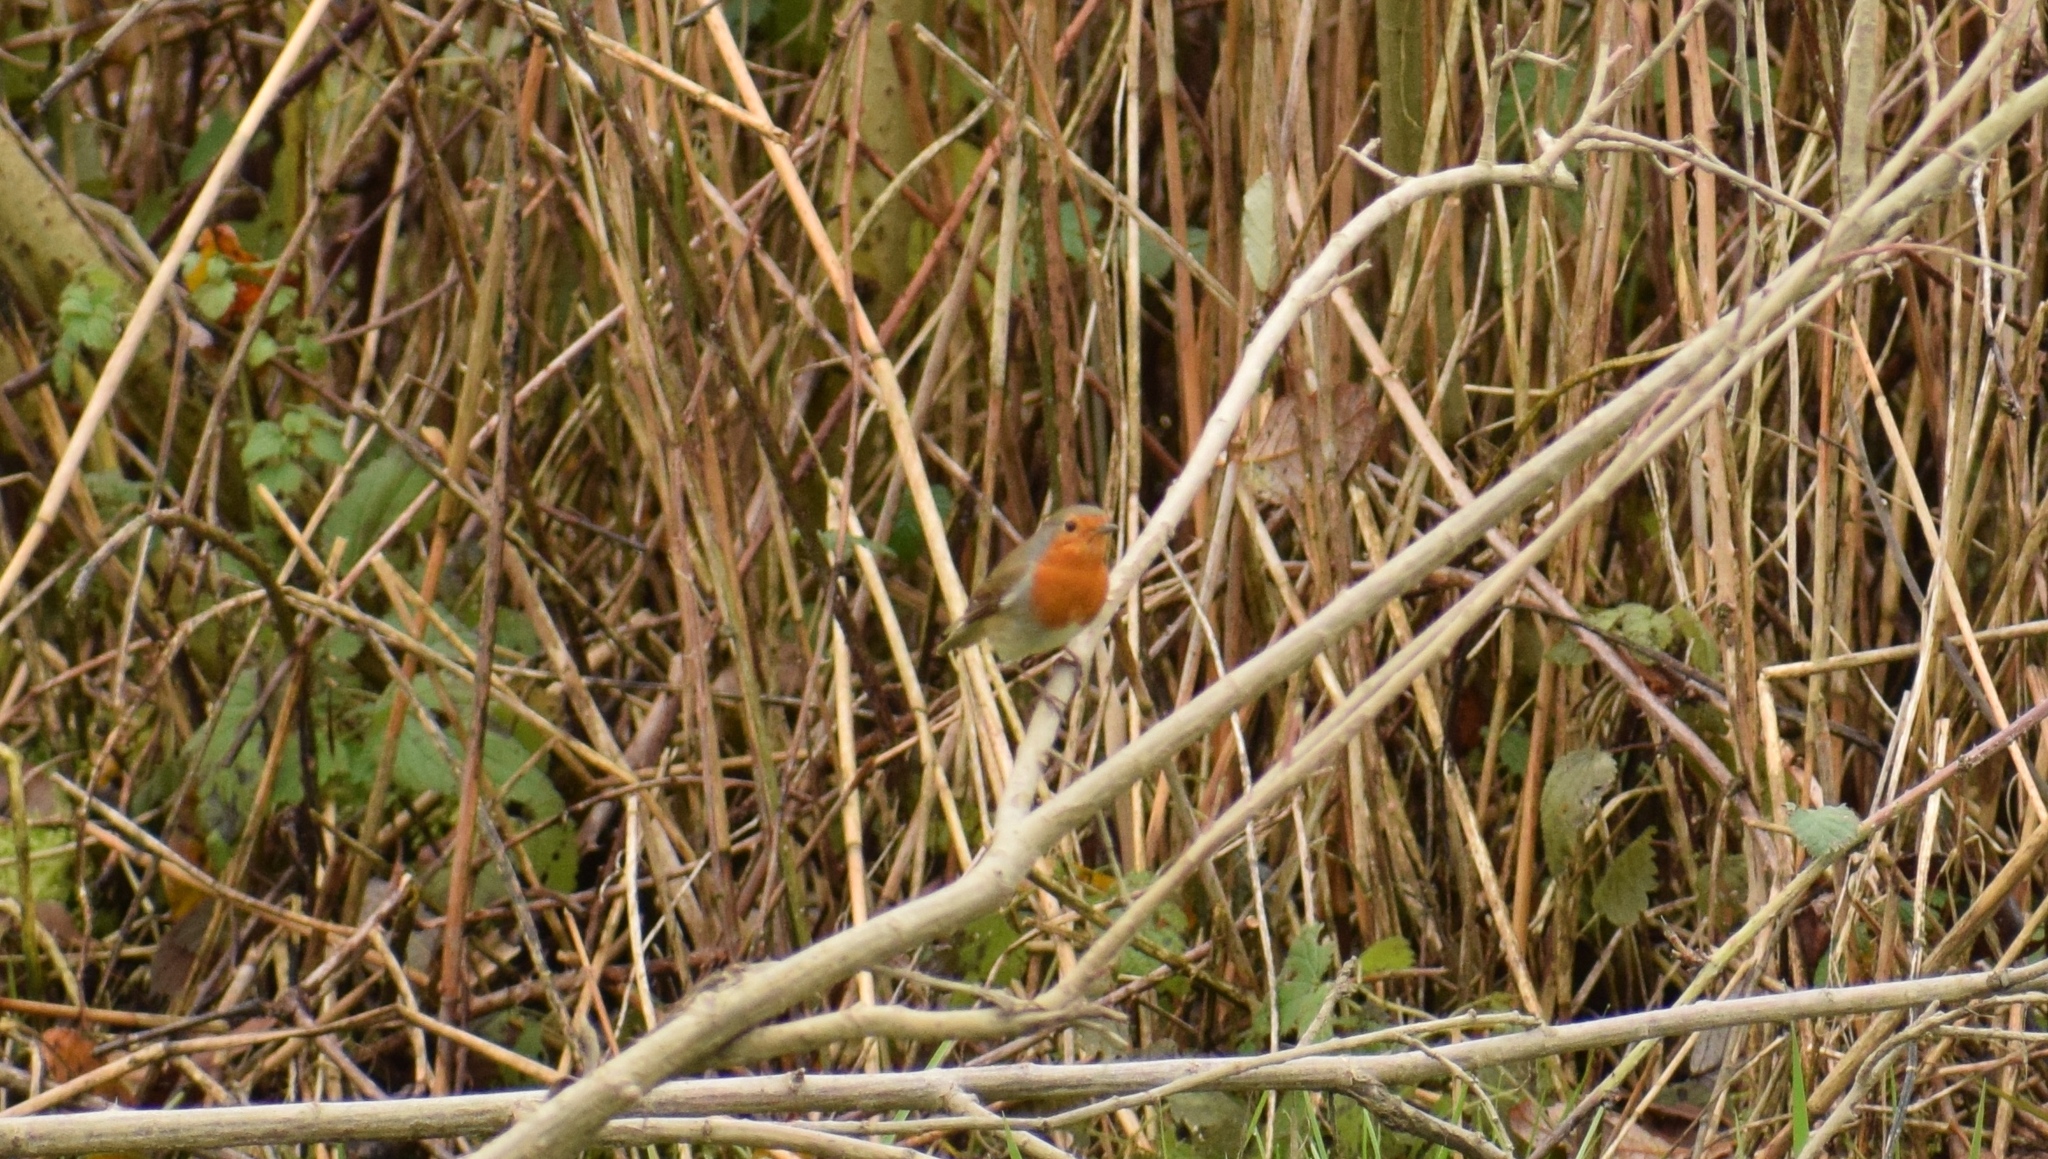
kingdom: Animalia
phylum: Chordata
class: Aves
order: Passeriformes
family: Muscicapidae
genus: Erithacus
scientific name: Erithacus rubecula
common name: European robin
